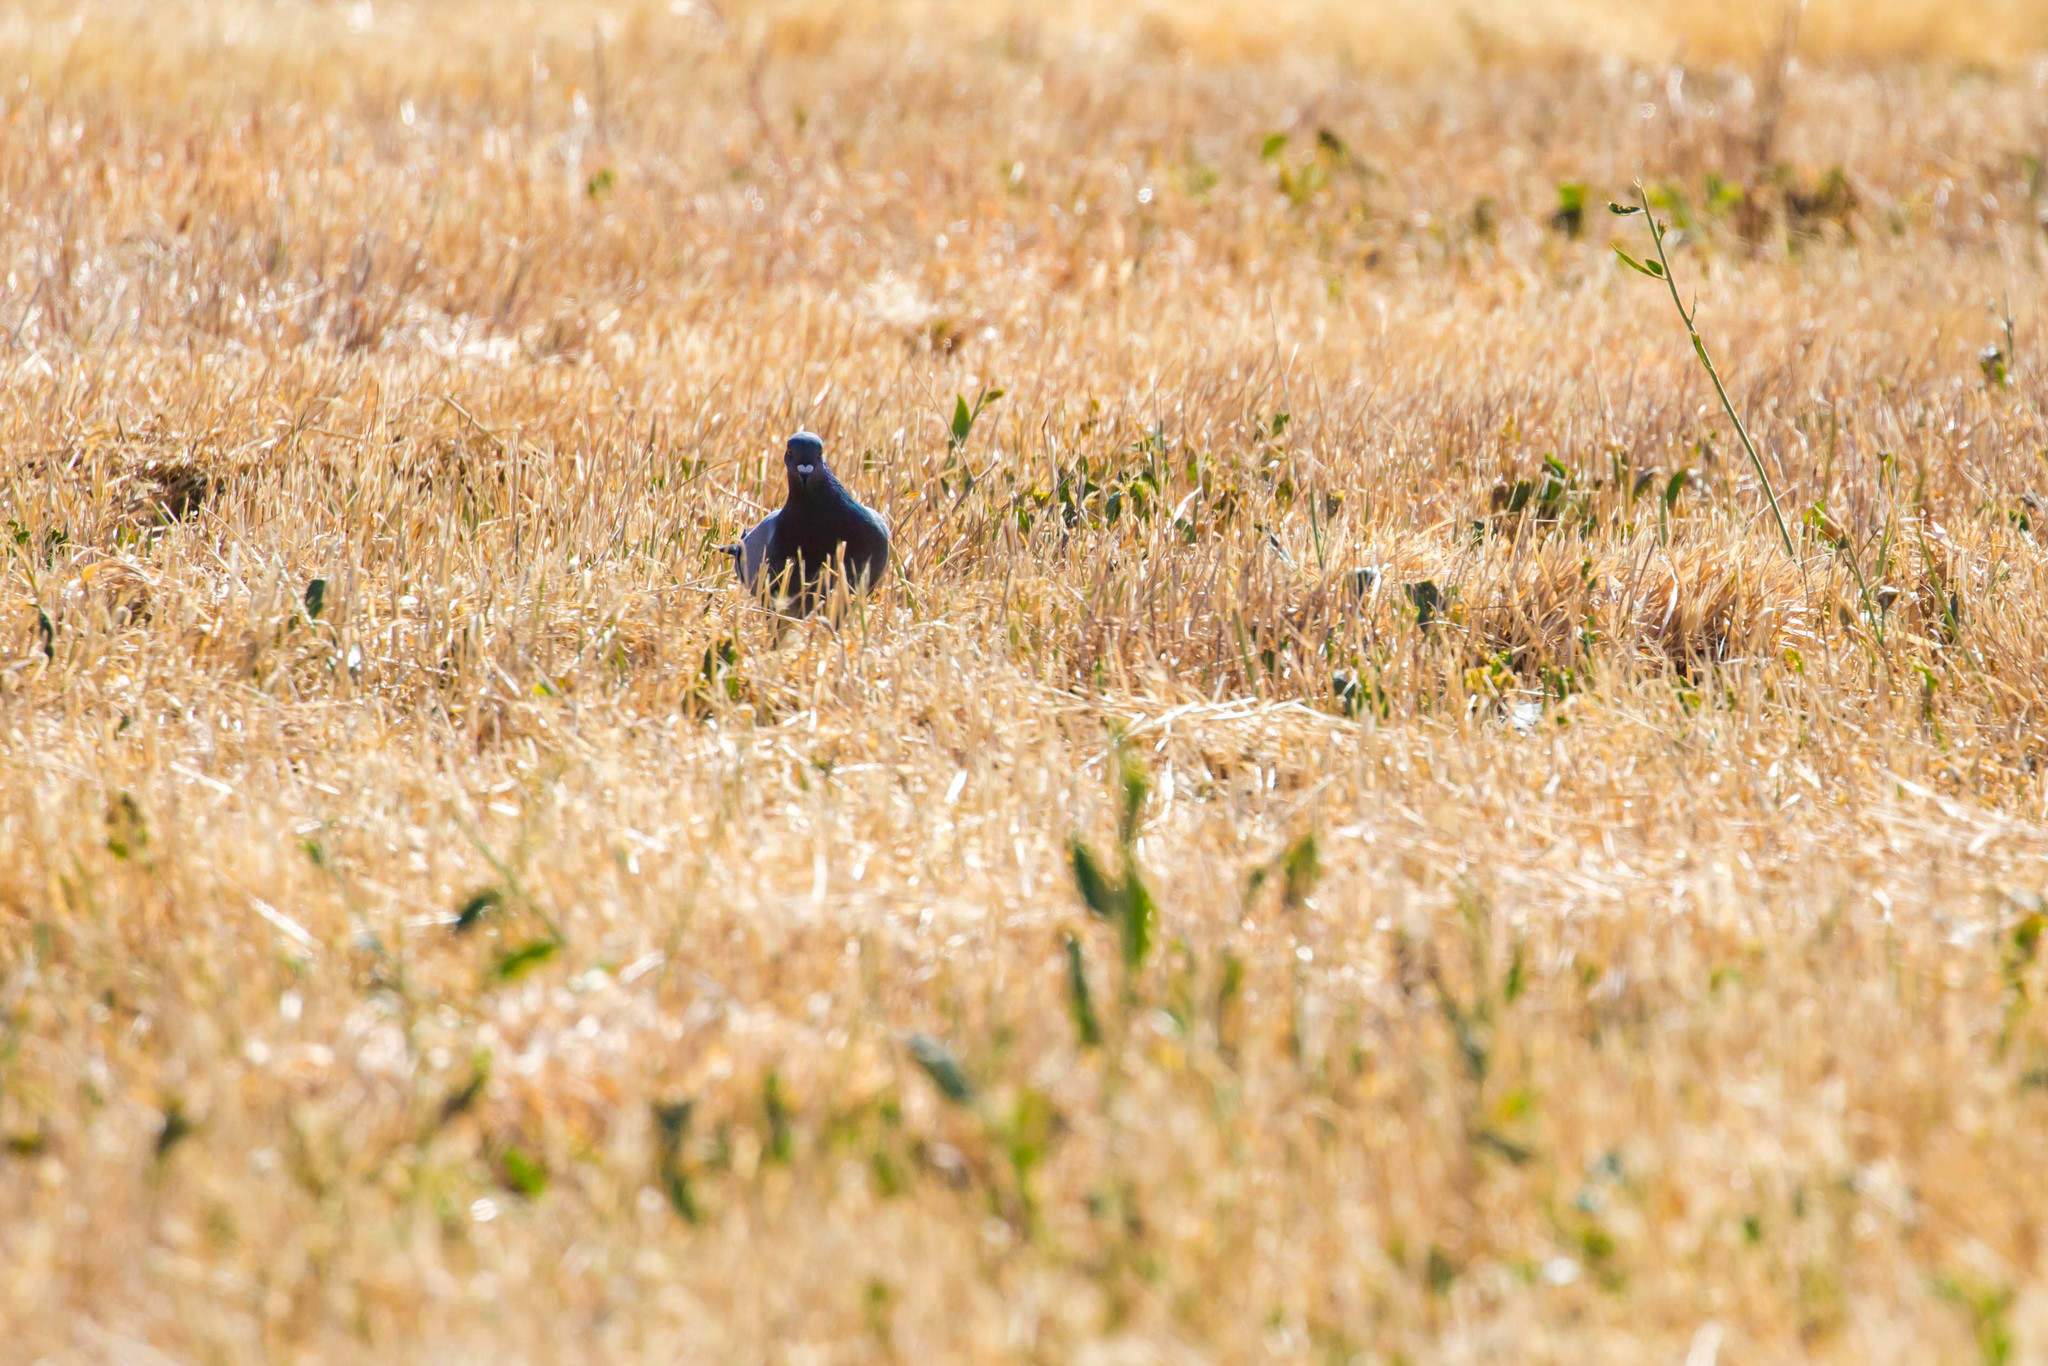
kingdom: Animalia
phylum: Chordata
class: Aves
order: Columbiformes
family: Columbidae
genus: Columba
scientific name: Columba livia
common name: Rock pigeon
